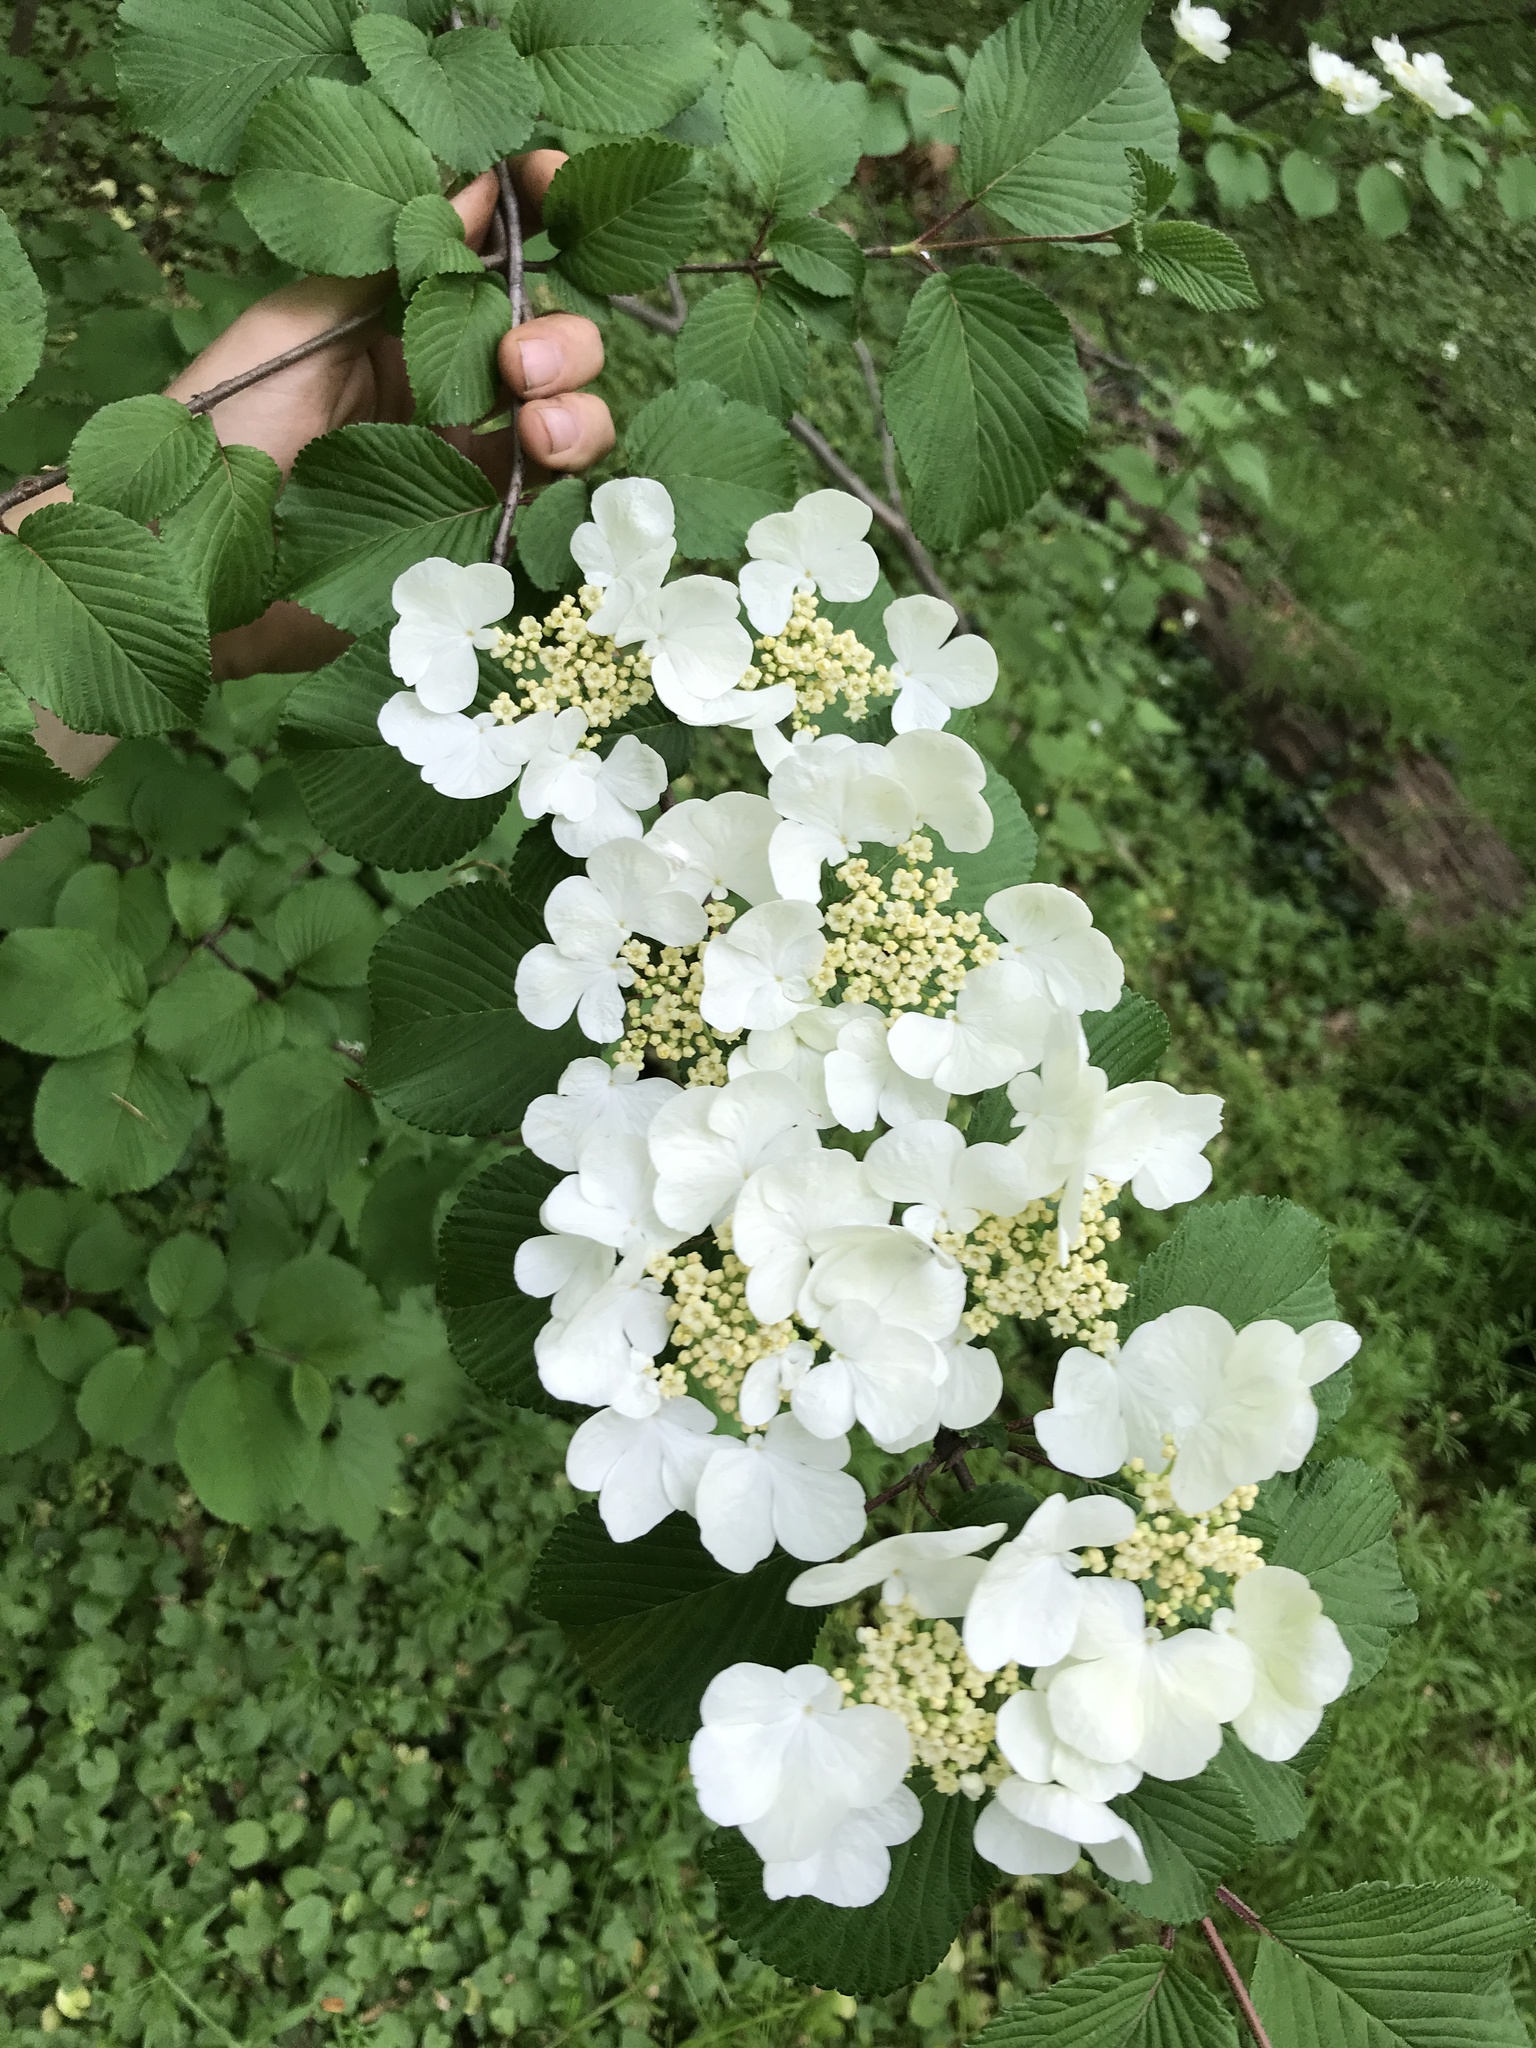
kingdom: Plantae
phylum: Tracheophyta
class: Magnoliopsida
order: Dipsacales
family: Viburnaceae
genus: Viburnum
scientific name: Viburnum plicatum
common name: Japanese snowball
